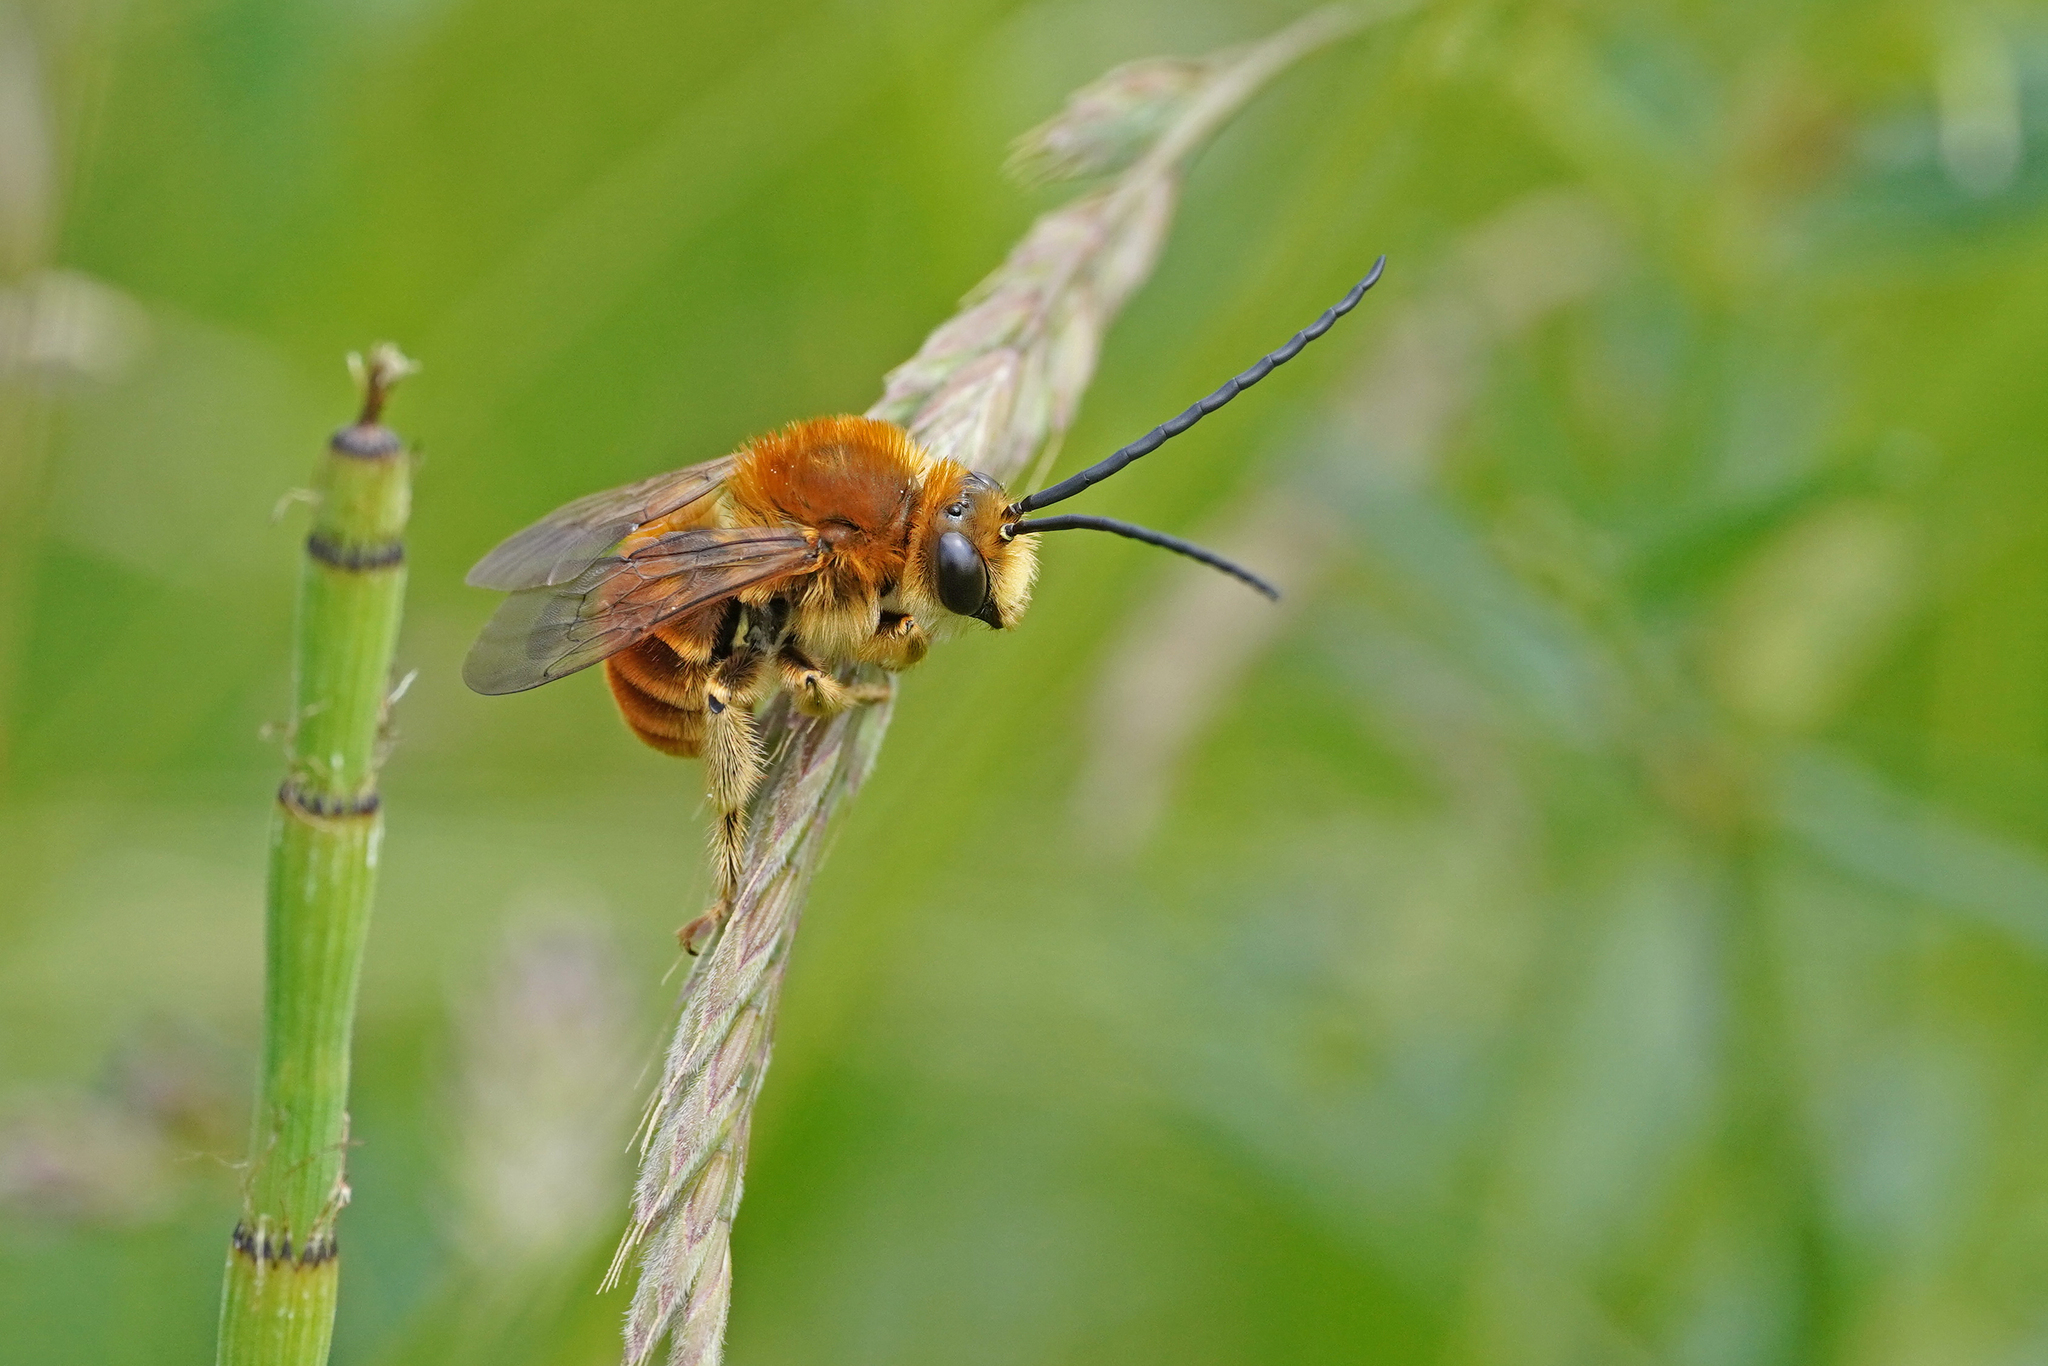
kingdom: Animalia
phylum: Arthropoda
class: Insecta
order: Hymenoptera
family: Apidae
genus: Eucera
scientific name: Eucera chrysopyga
